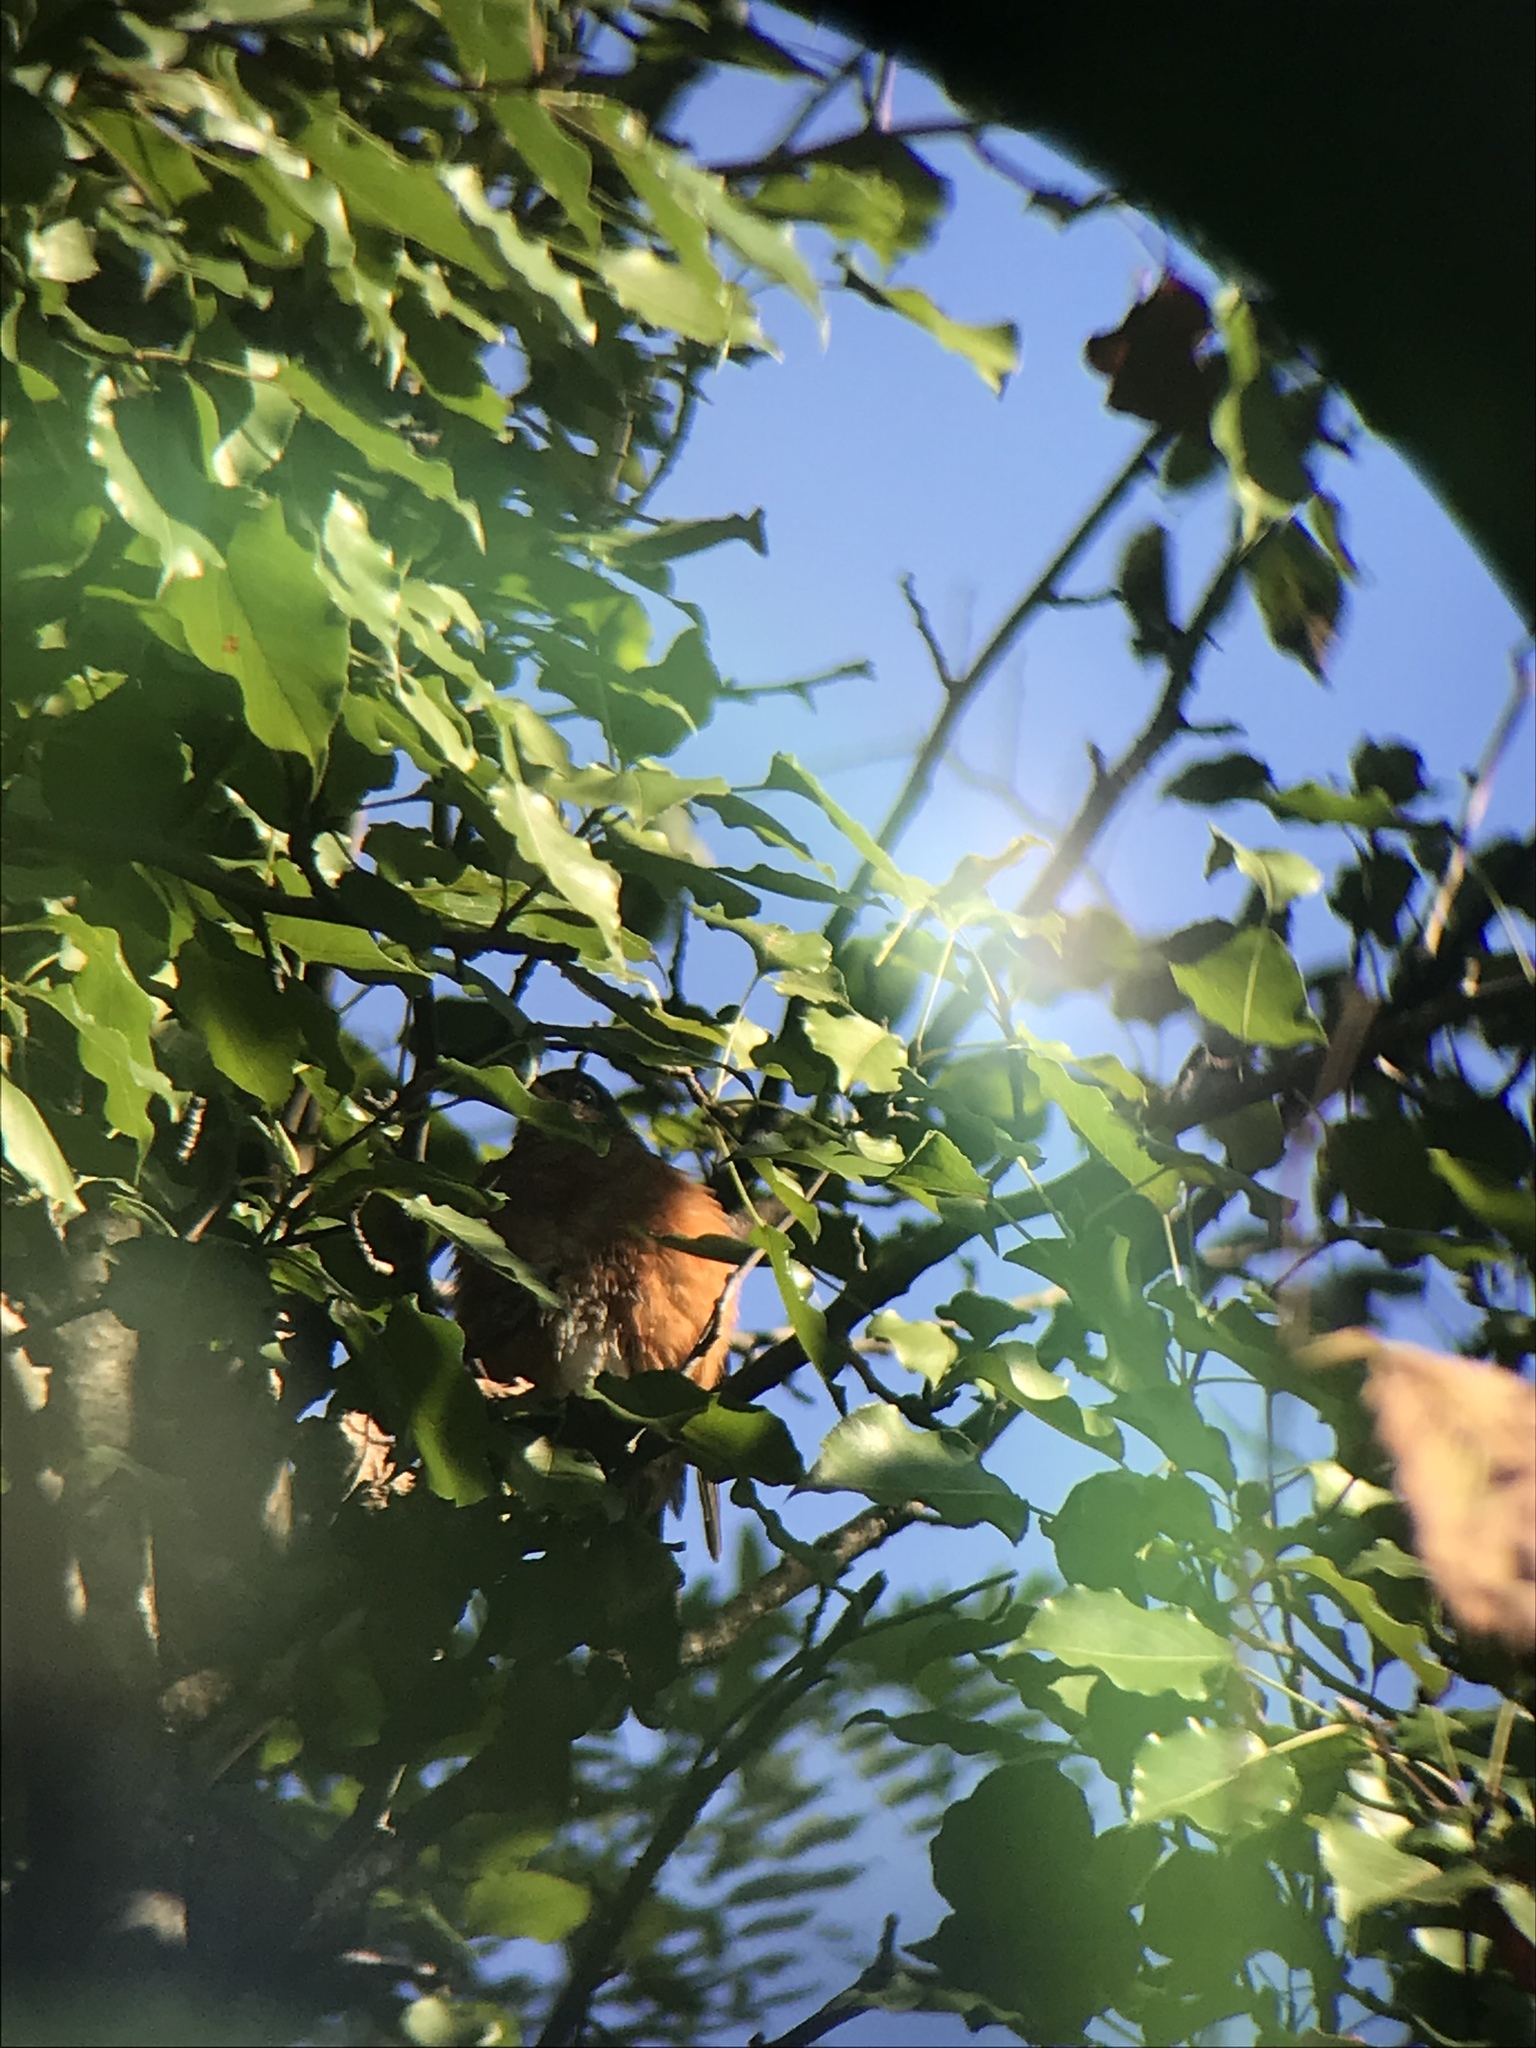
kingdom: Animalia
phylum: Chordata
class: Aves
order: Passeriformes
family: Turdidae
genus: Turdus
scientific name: Turdus migratorius
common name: American robin
